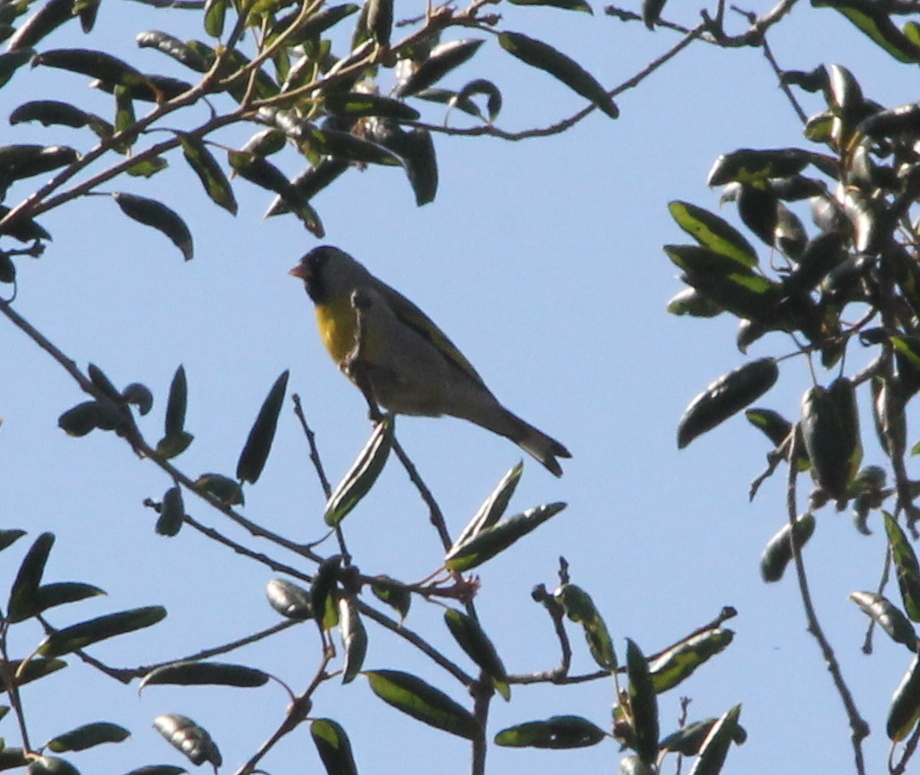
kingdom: Animalia
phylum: Chordata
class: Aves
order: Passeriformes
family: Fringillidae
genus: Spinus
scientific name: Spinus lawrencei
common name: Lawrence's goldfinch
